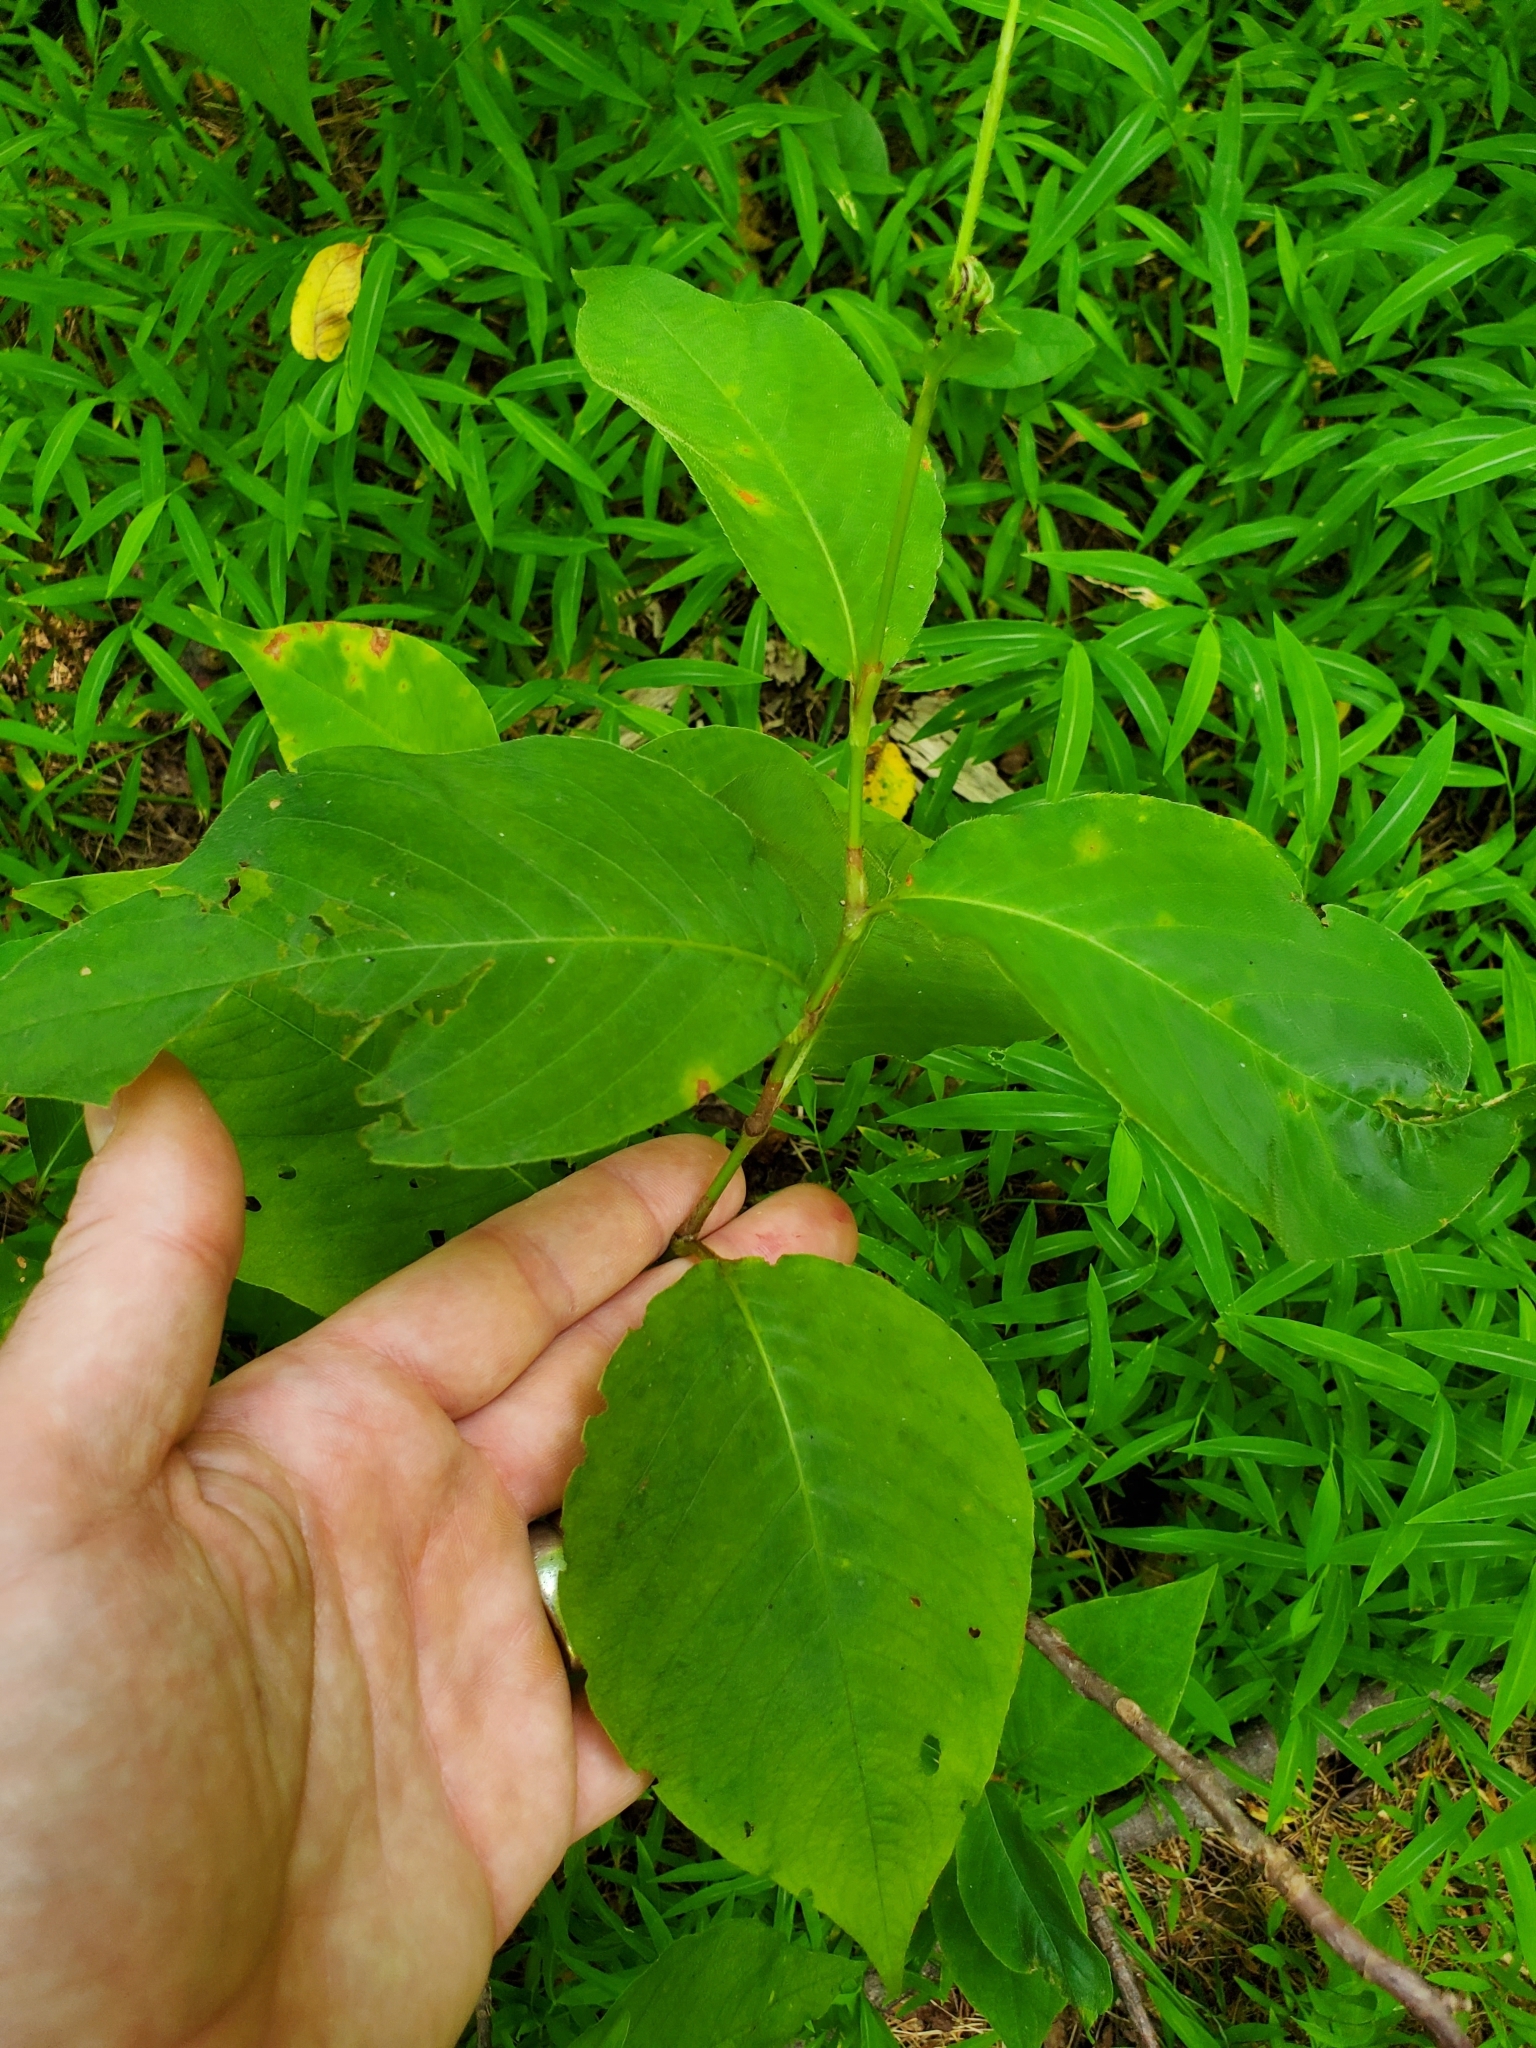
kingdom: Plantae
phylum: Tracheophyta
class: Magnoliopsida
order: Caryophyllales
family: Polygonaceae
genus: Persicaria
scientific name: Persicaria virginiana
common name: Jumpseed
